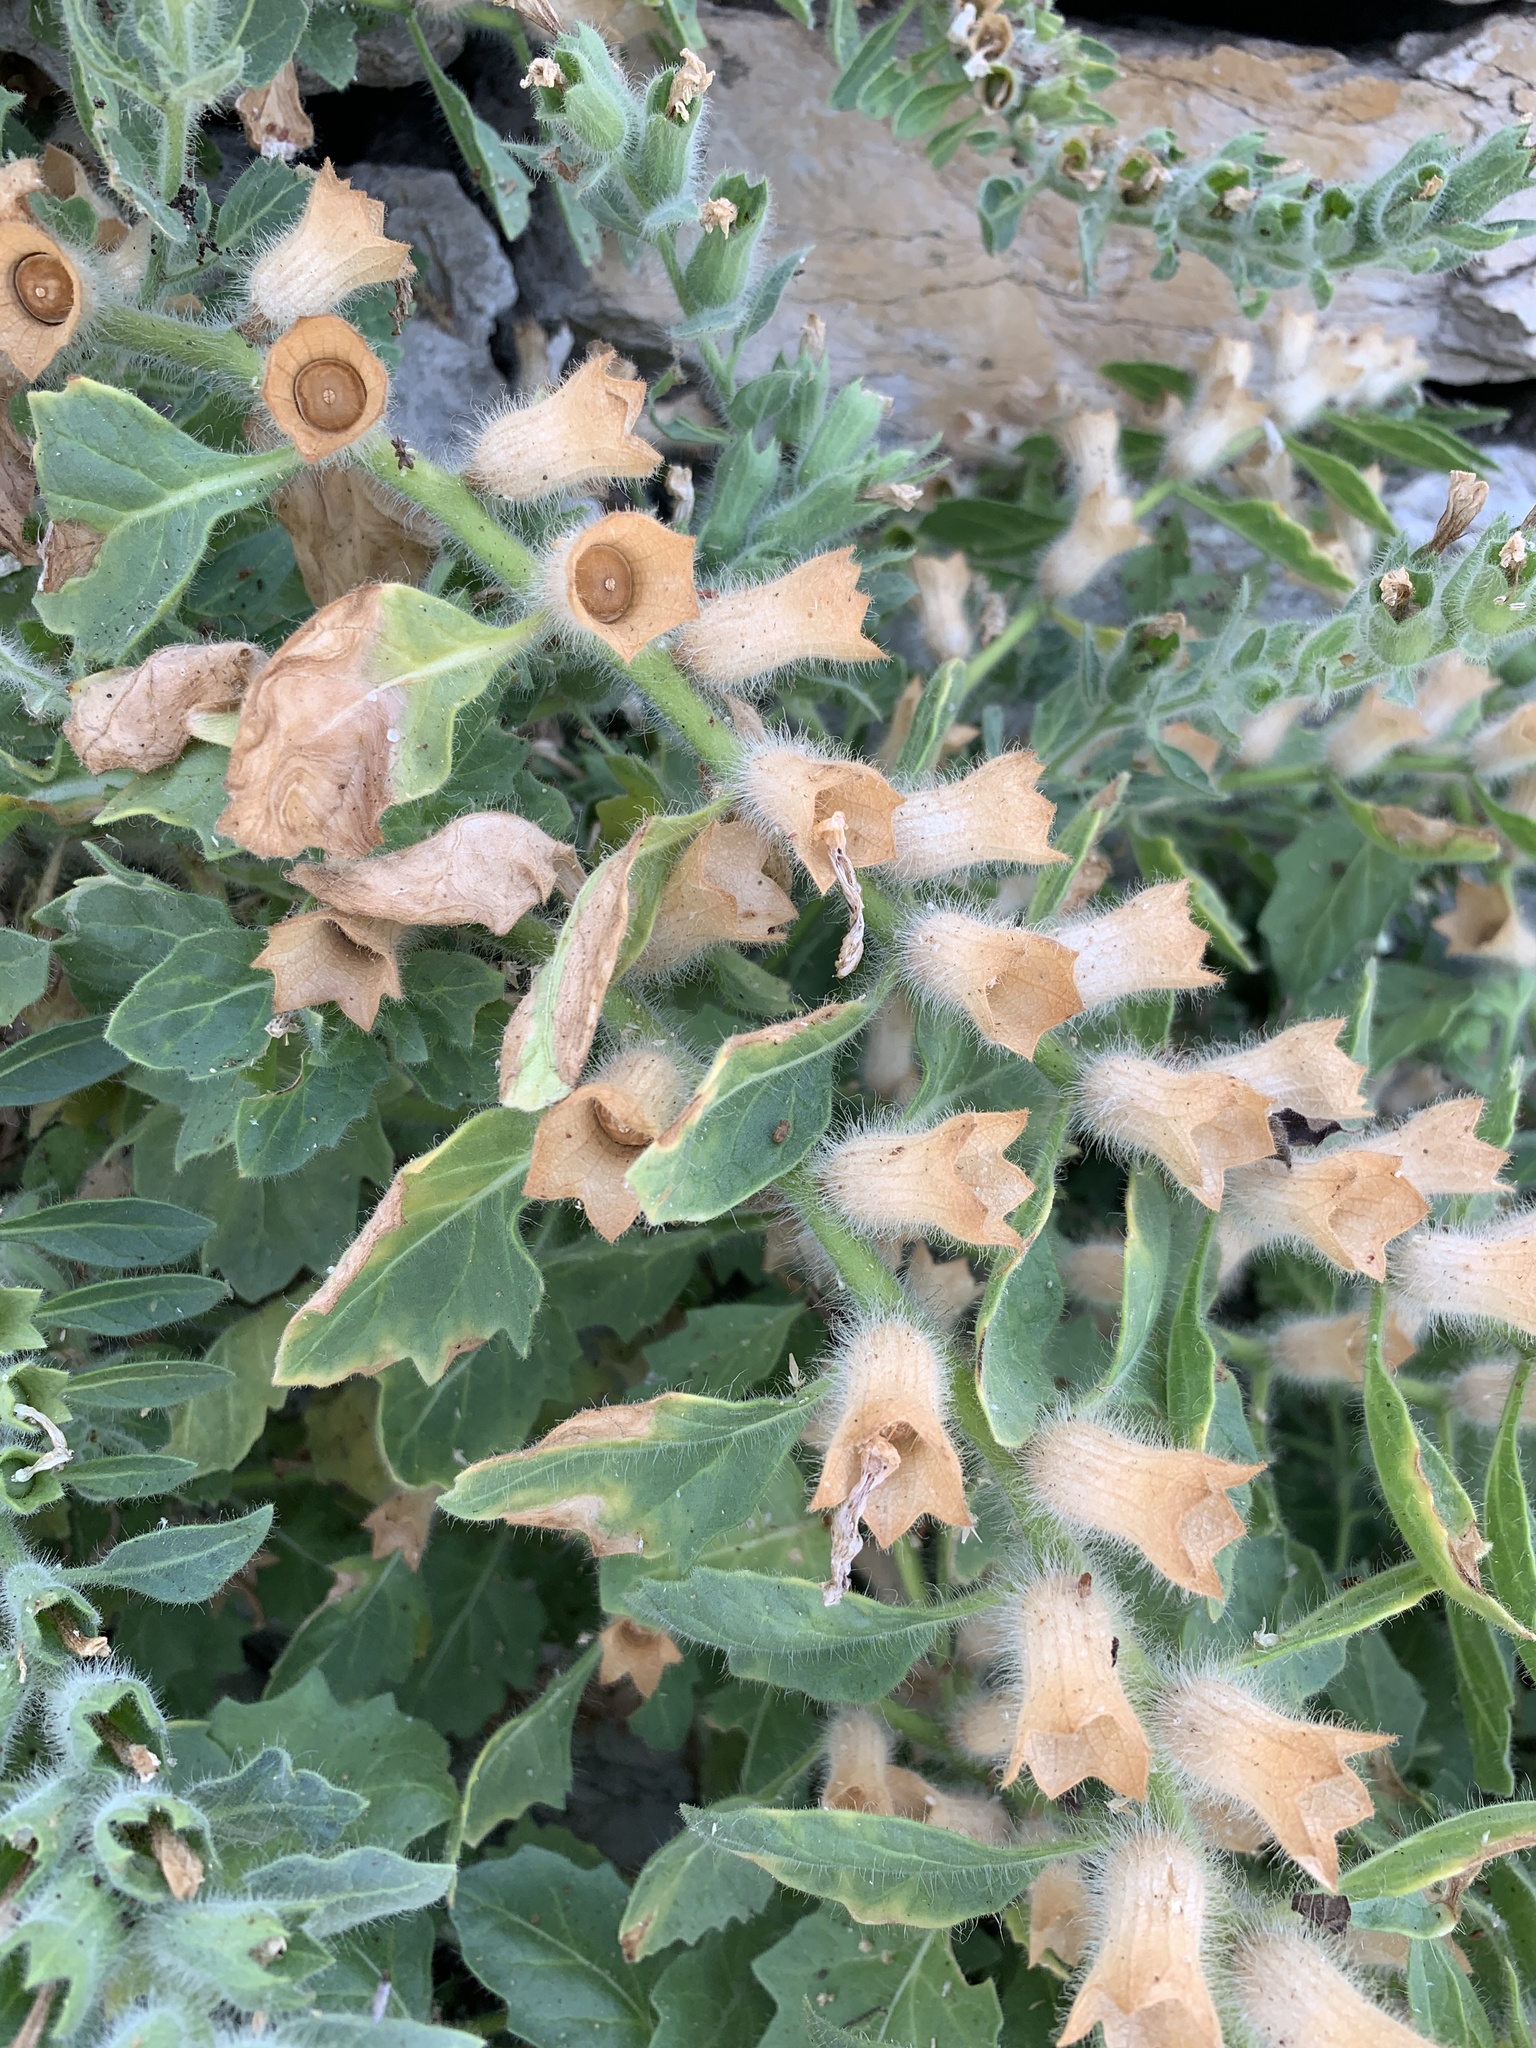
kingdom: Plantae
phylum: Tracheophyta
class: Magnoliopsida
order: Solanales
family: Solanaceae
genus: Hyoscyamus
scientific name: Hyoscyamus albus
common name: White henbane
